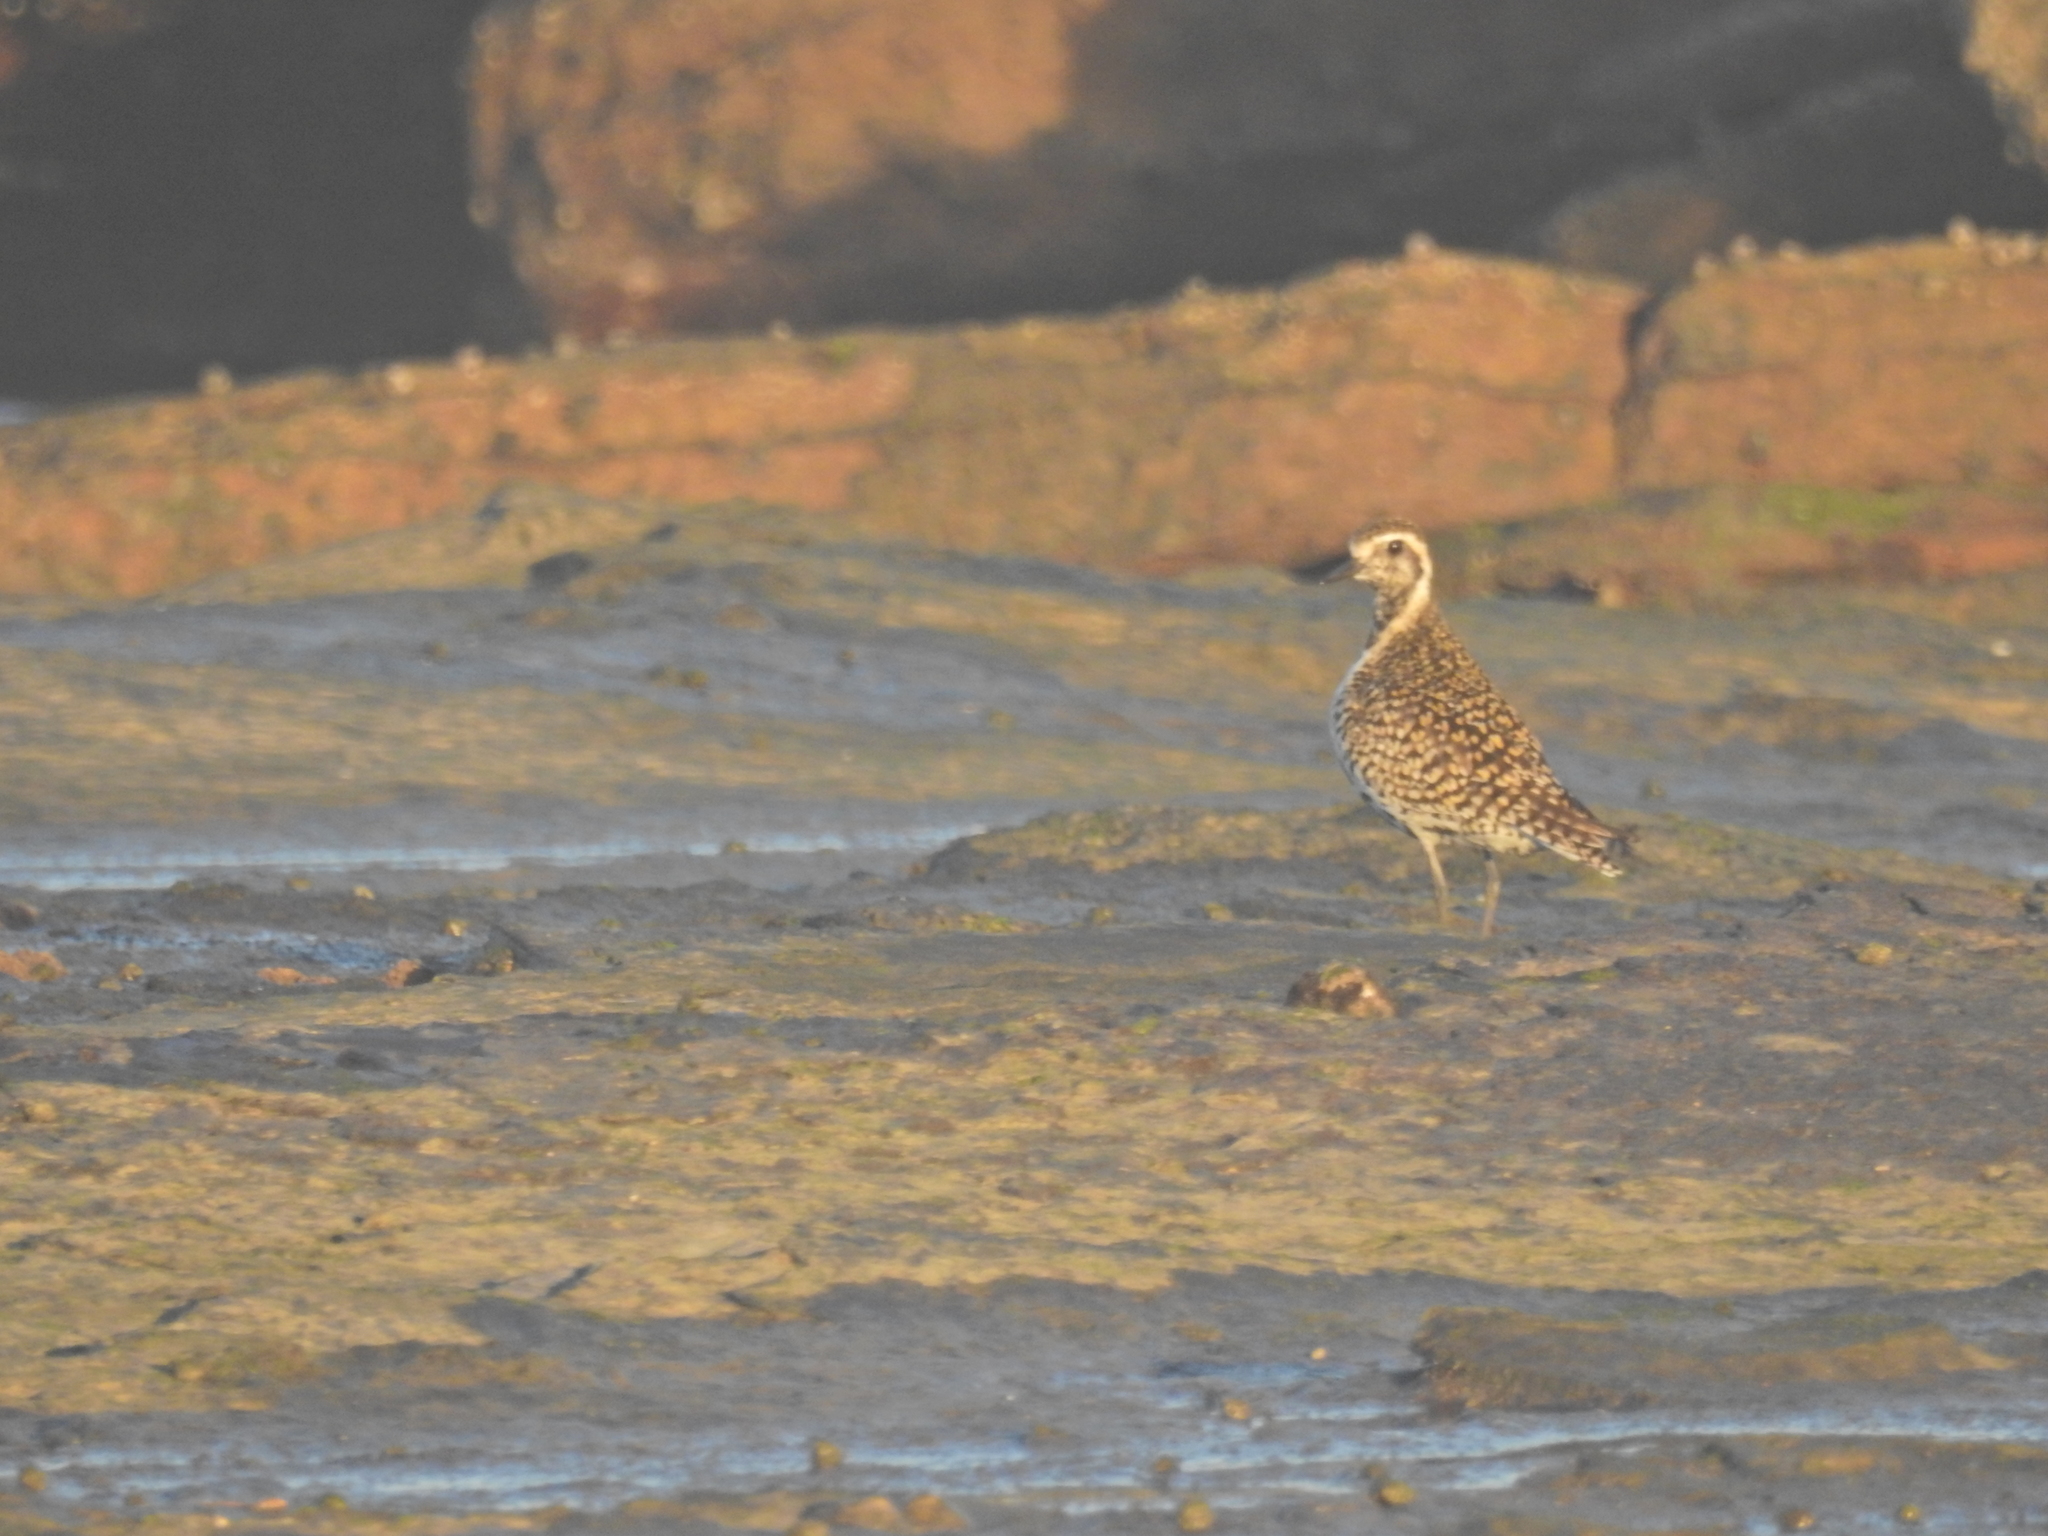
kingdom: Animalia
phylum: Chordata
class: Aves
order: Charadriiformes
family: Charadriidae
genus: Pluvialis
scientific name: Pluvialis fulva
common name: Pacific golden plover
